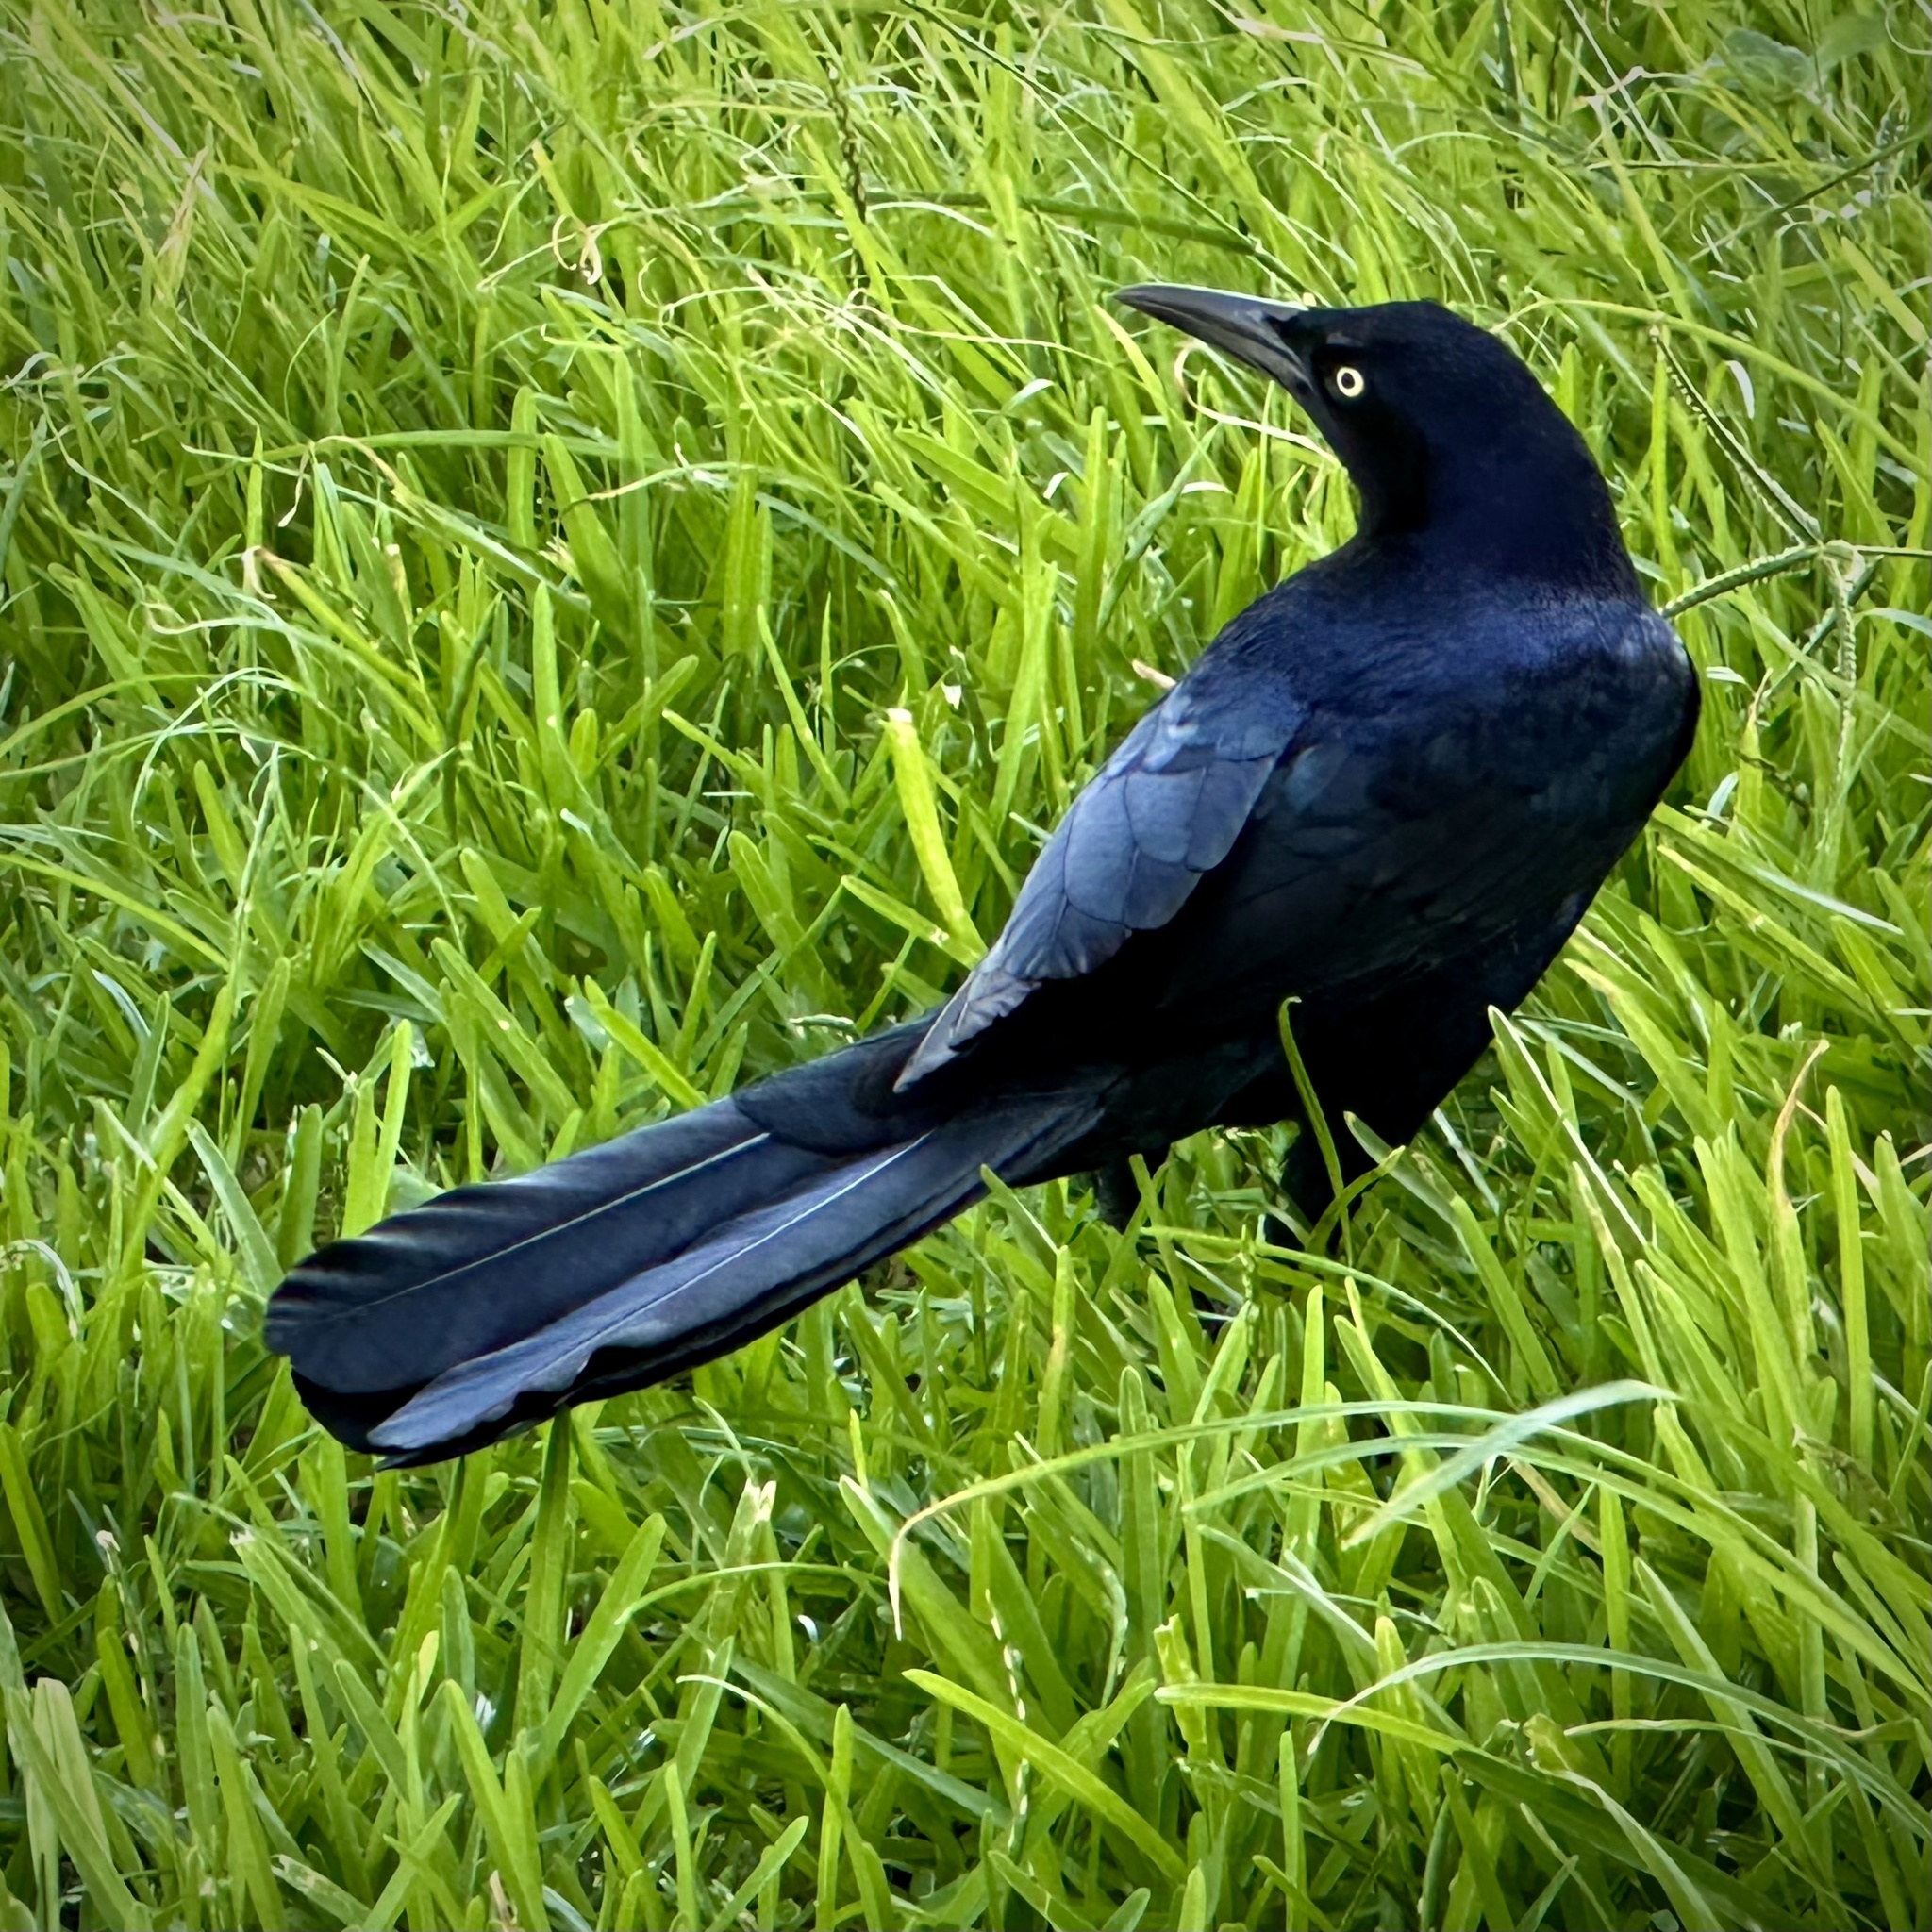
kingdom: Animalia
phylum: Chordata
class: Aves
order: Passeriformes
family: Icteridae
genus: Quiscalus
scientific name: Quiscalus mexicanus
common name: Great-tailed grackle
